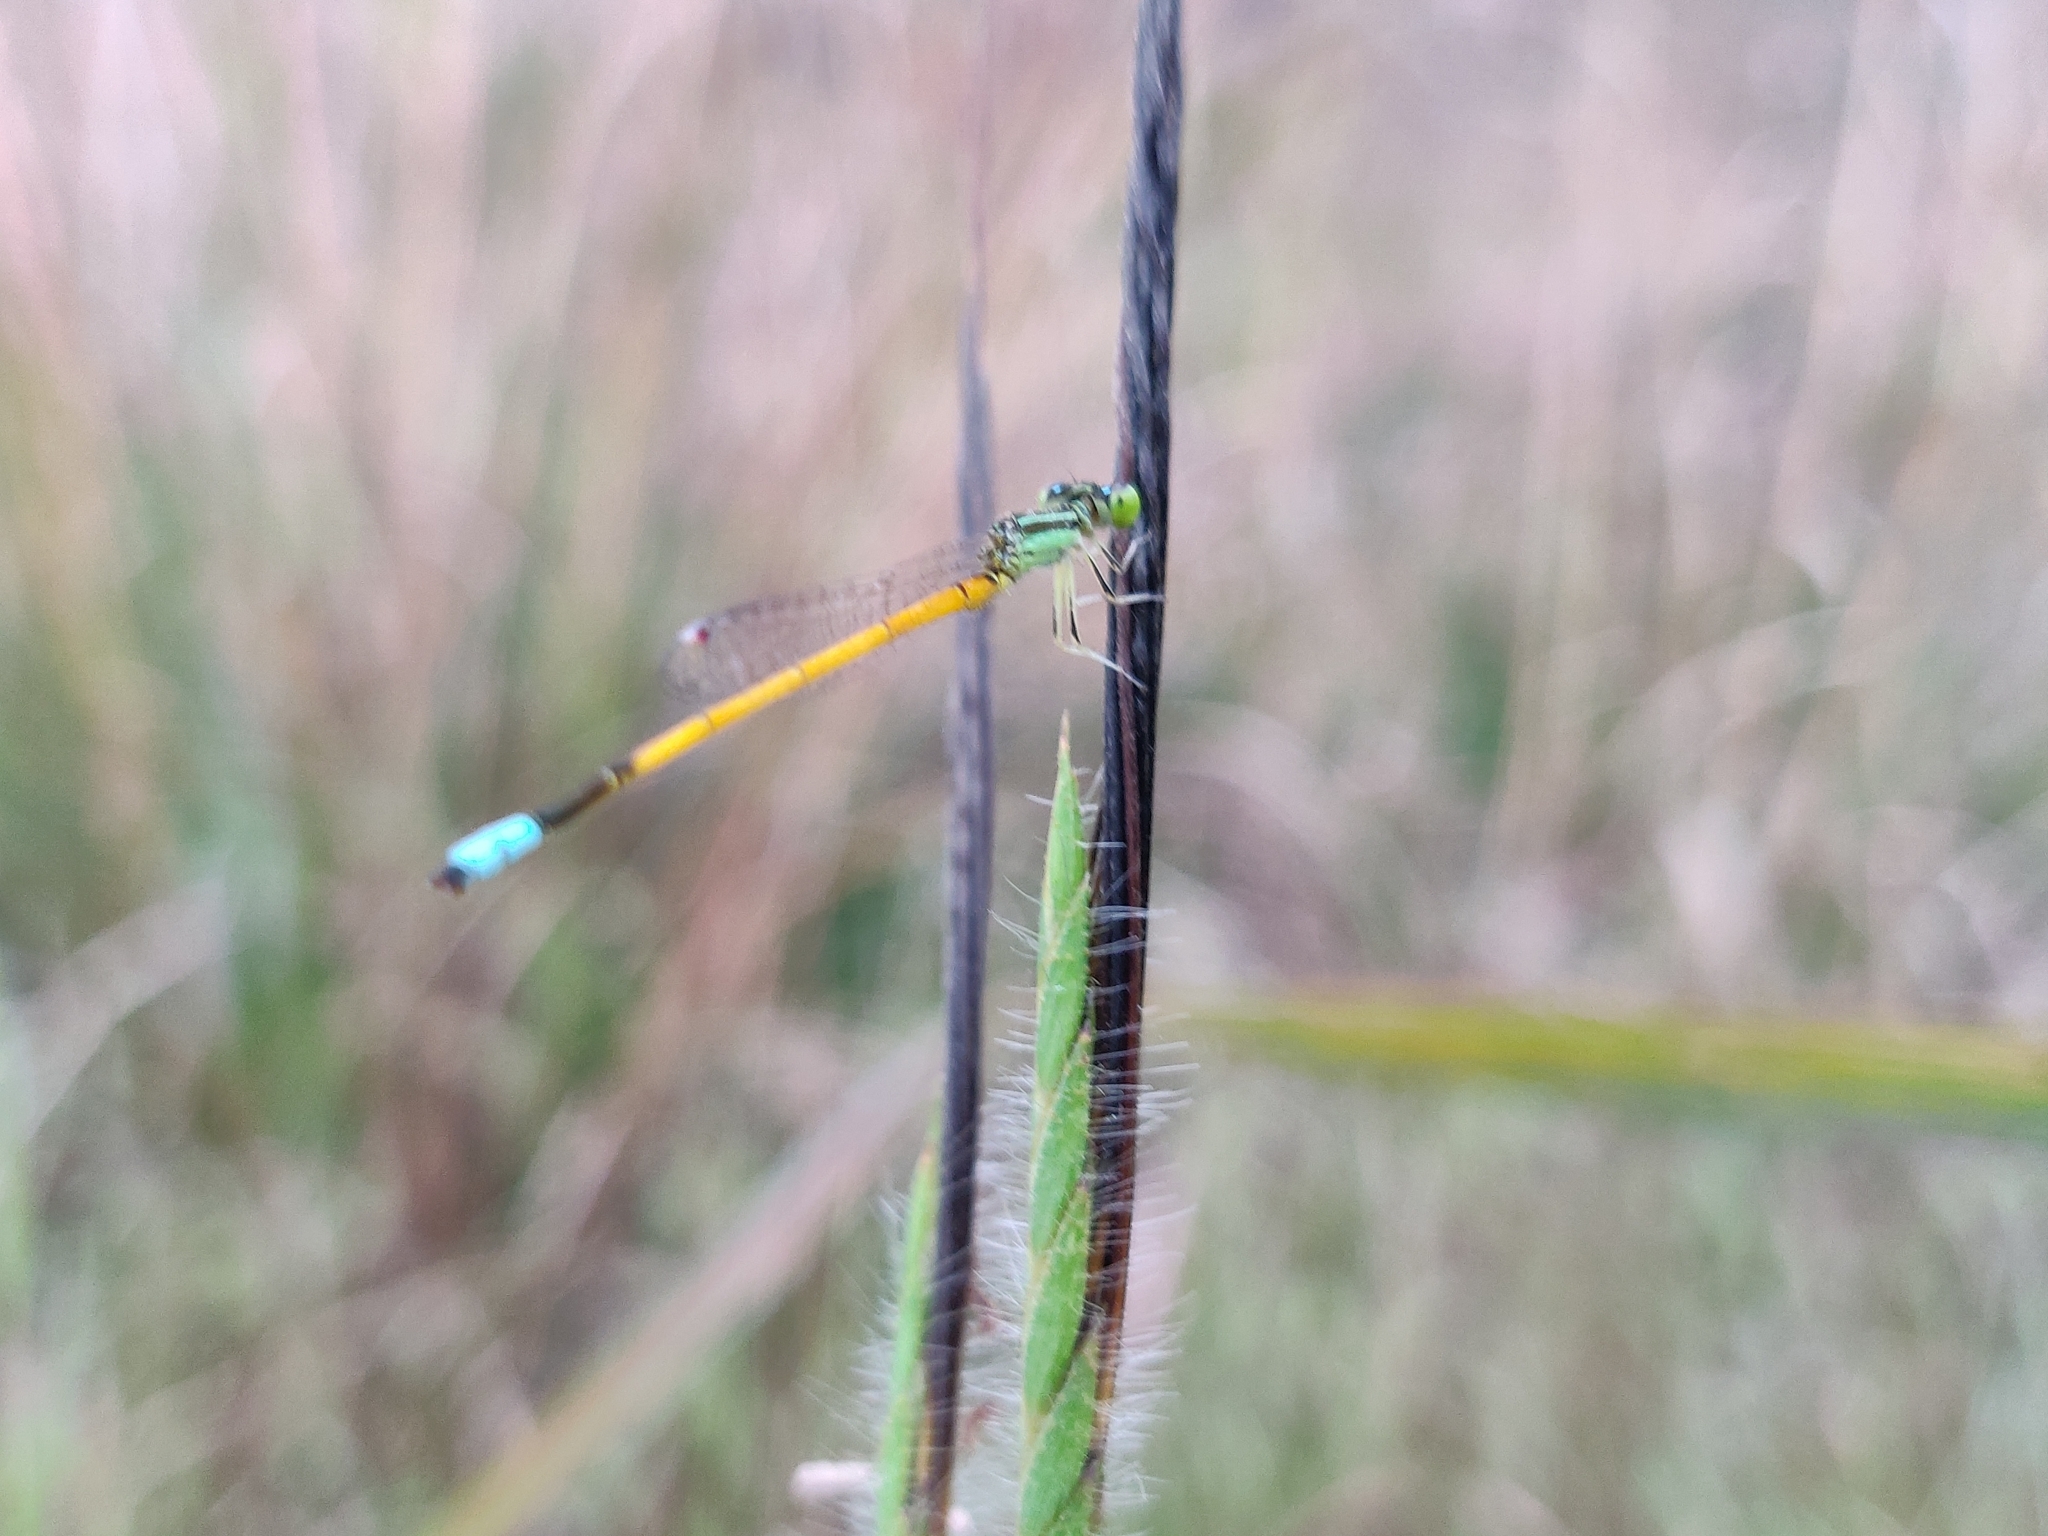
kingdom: Animalia
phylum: Arthropoda
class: Insecta
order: Odonata
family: Coenagrionidae
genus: Ischnura
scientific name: Ischnura rubilio
